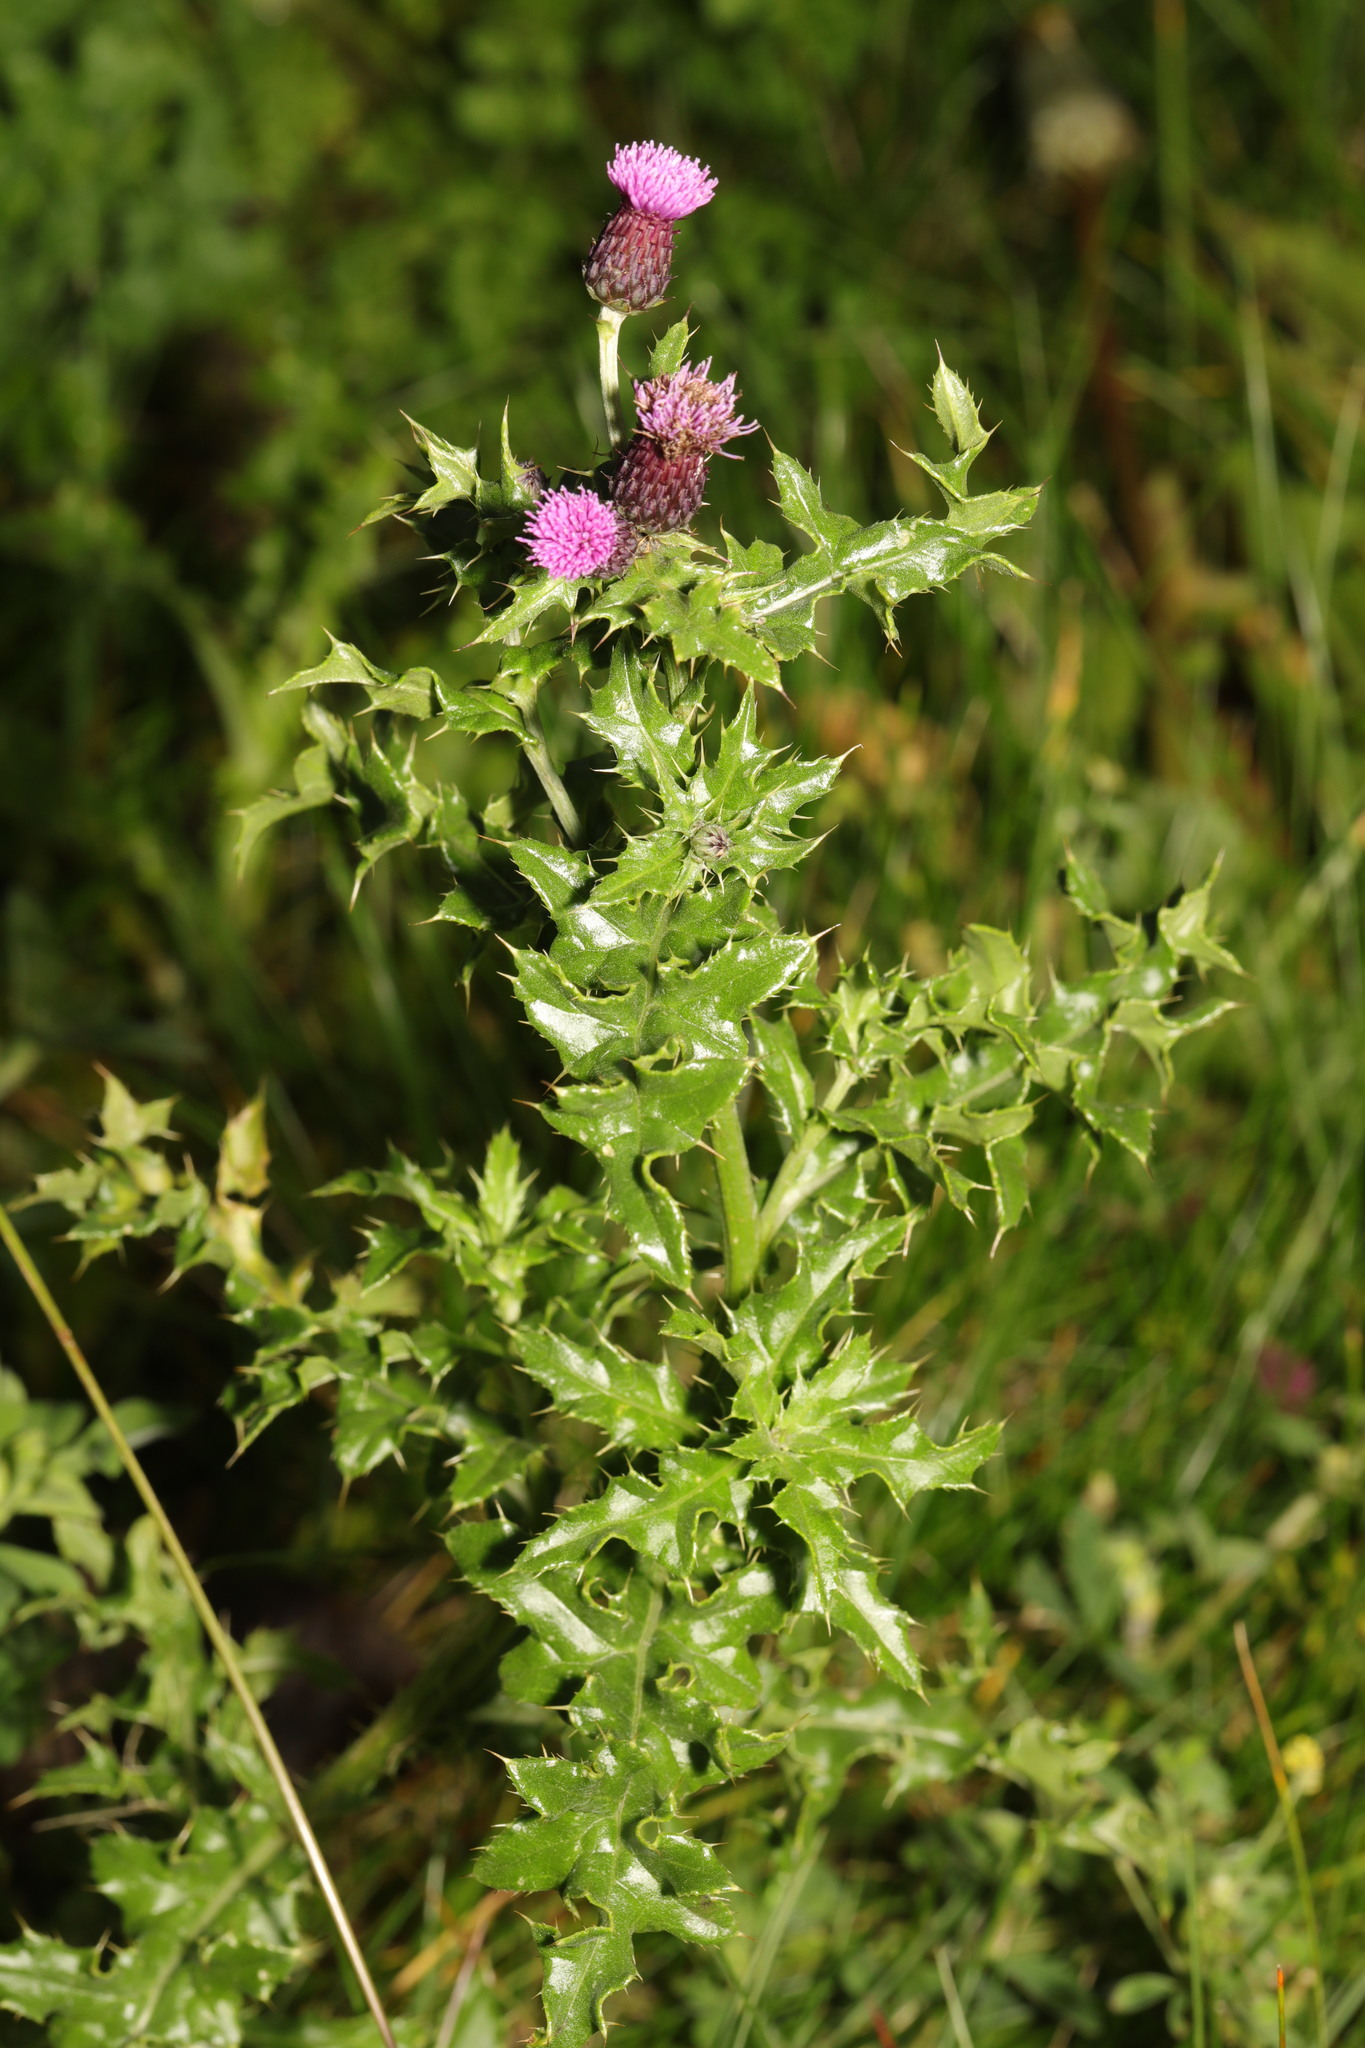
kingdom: Plantae
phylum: Tracheophyta
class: Magnoliopsida
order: Asterales
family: Asteraceae
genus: Cirsium
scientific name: Cirsium arvense
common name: Creeping thistle
